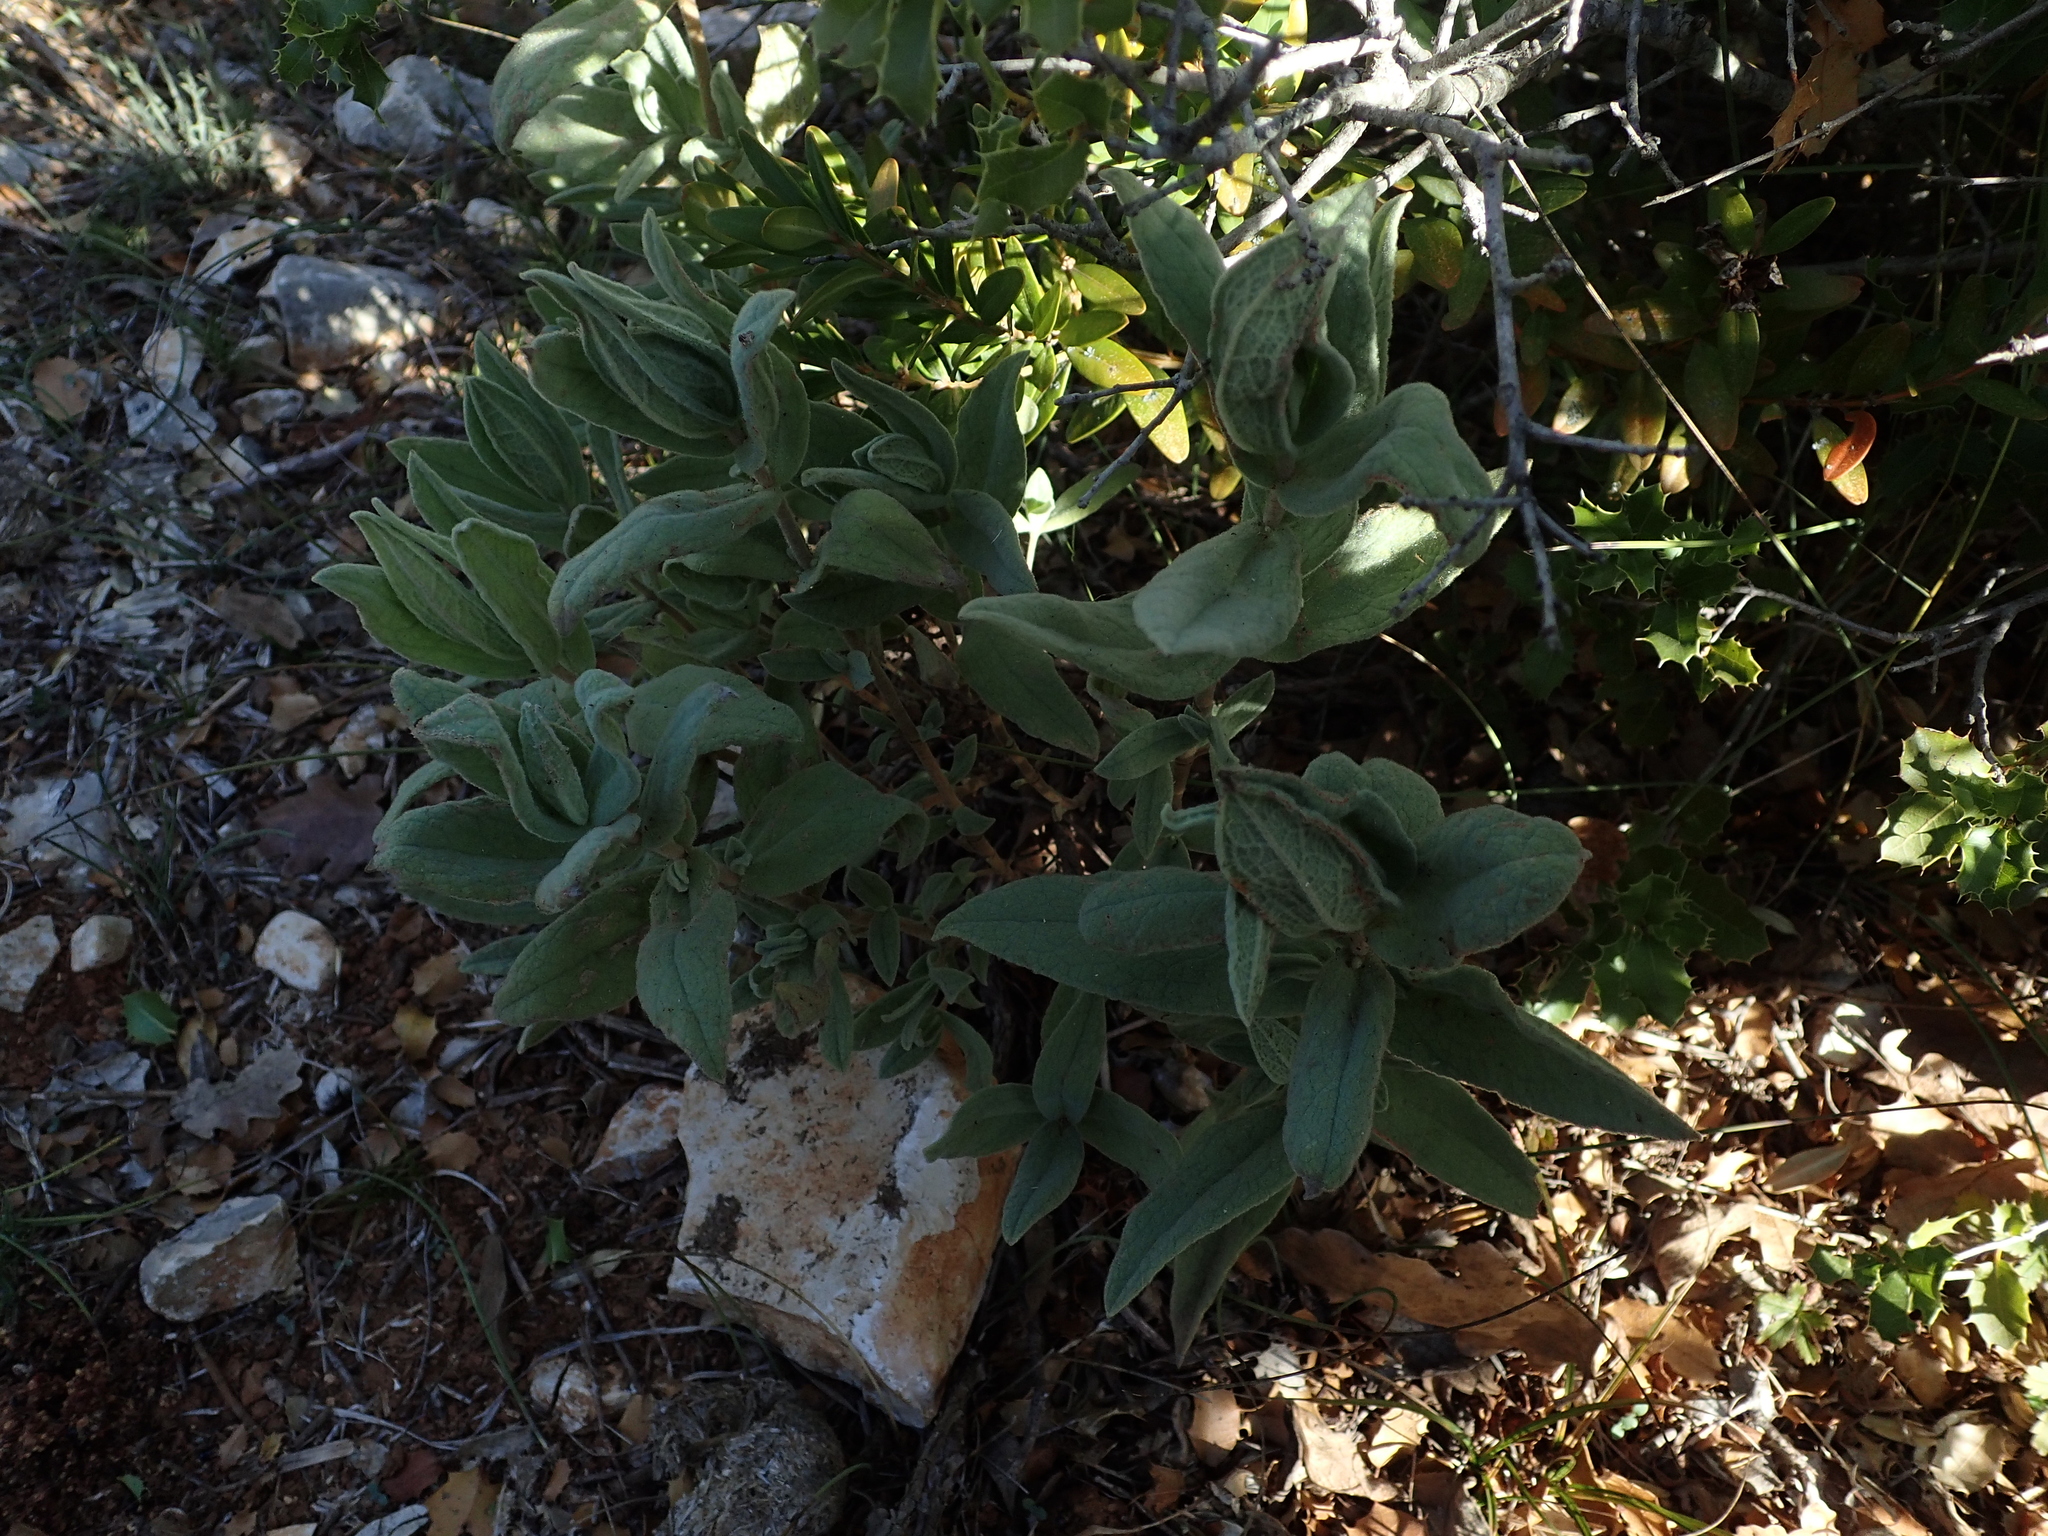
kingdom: Plantae
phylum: Tracheophyta
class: Magnoliopsida
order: Malvales
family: Cistaceae
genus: Cistus
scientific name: Cistus albidus
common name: White-leaf rock-rose
